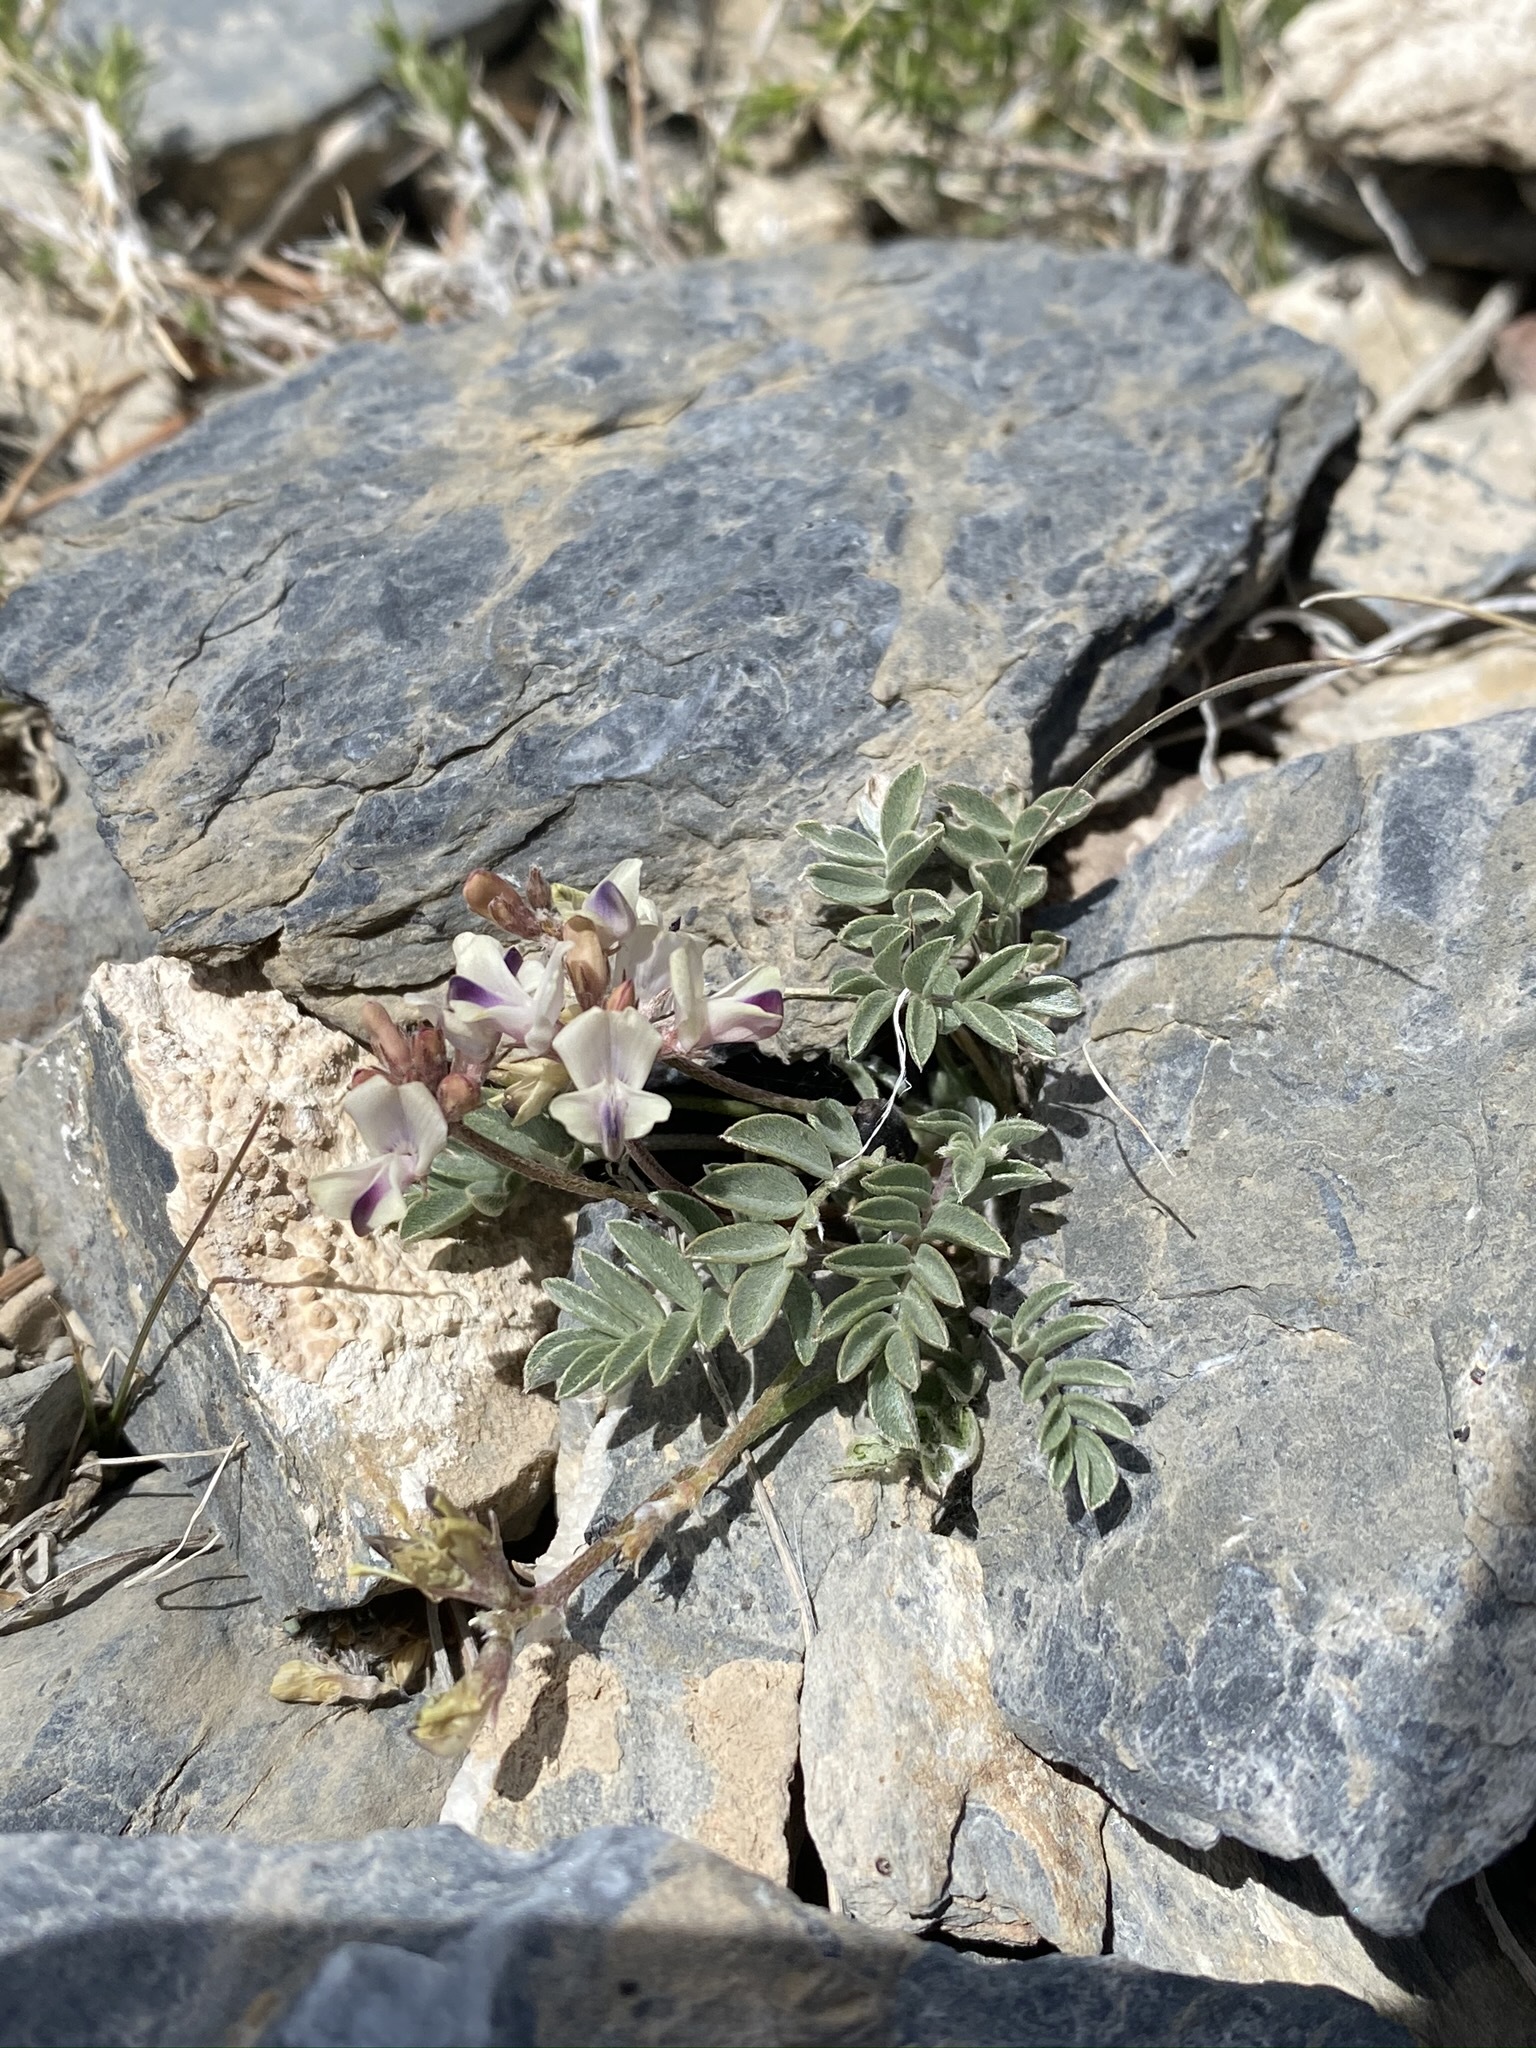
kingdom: Plantae
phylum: Tracheophyta
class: Magnoliopsida
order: Fabales
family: Fabaceae
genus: Astragalus
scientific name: Astragalus platytropis
